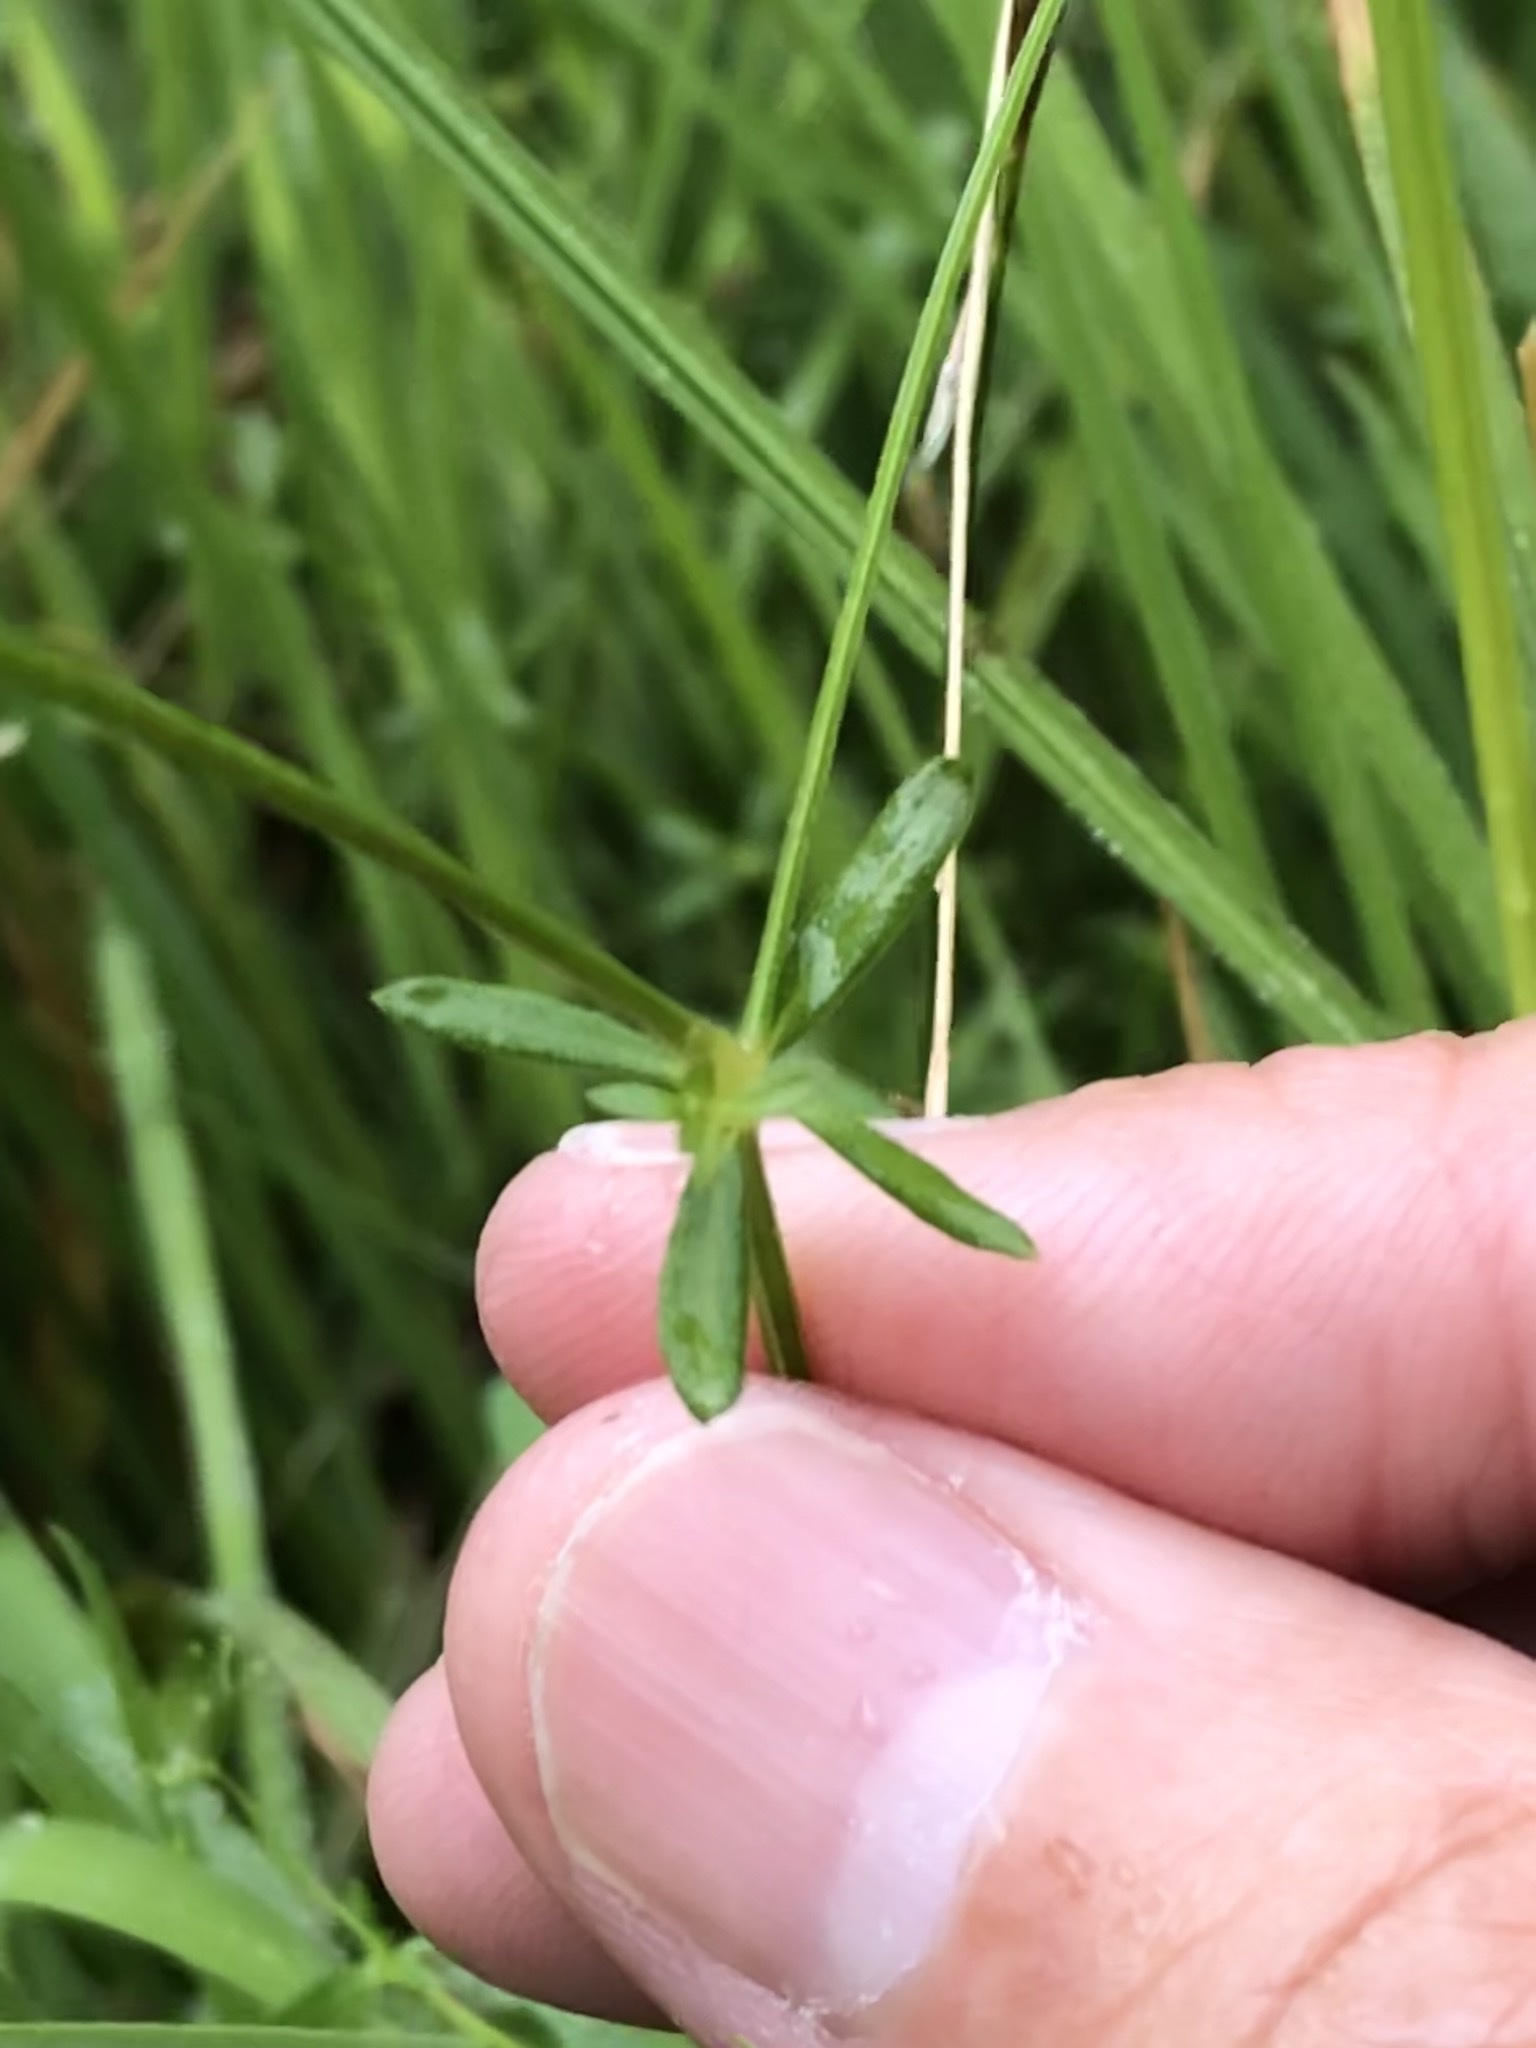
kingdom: Plantae
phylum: Tracheophyta
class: Magnoliopsida
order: Gentianales
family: Rubiaceae
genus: Galium
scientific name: Galium palustre
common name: Common marsh-bedstraw
